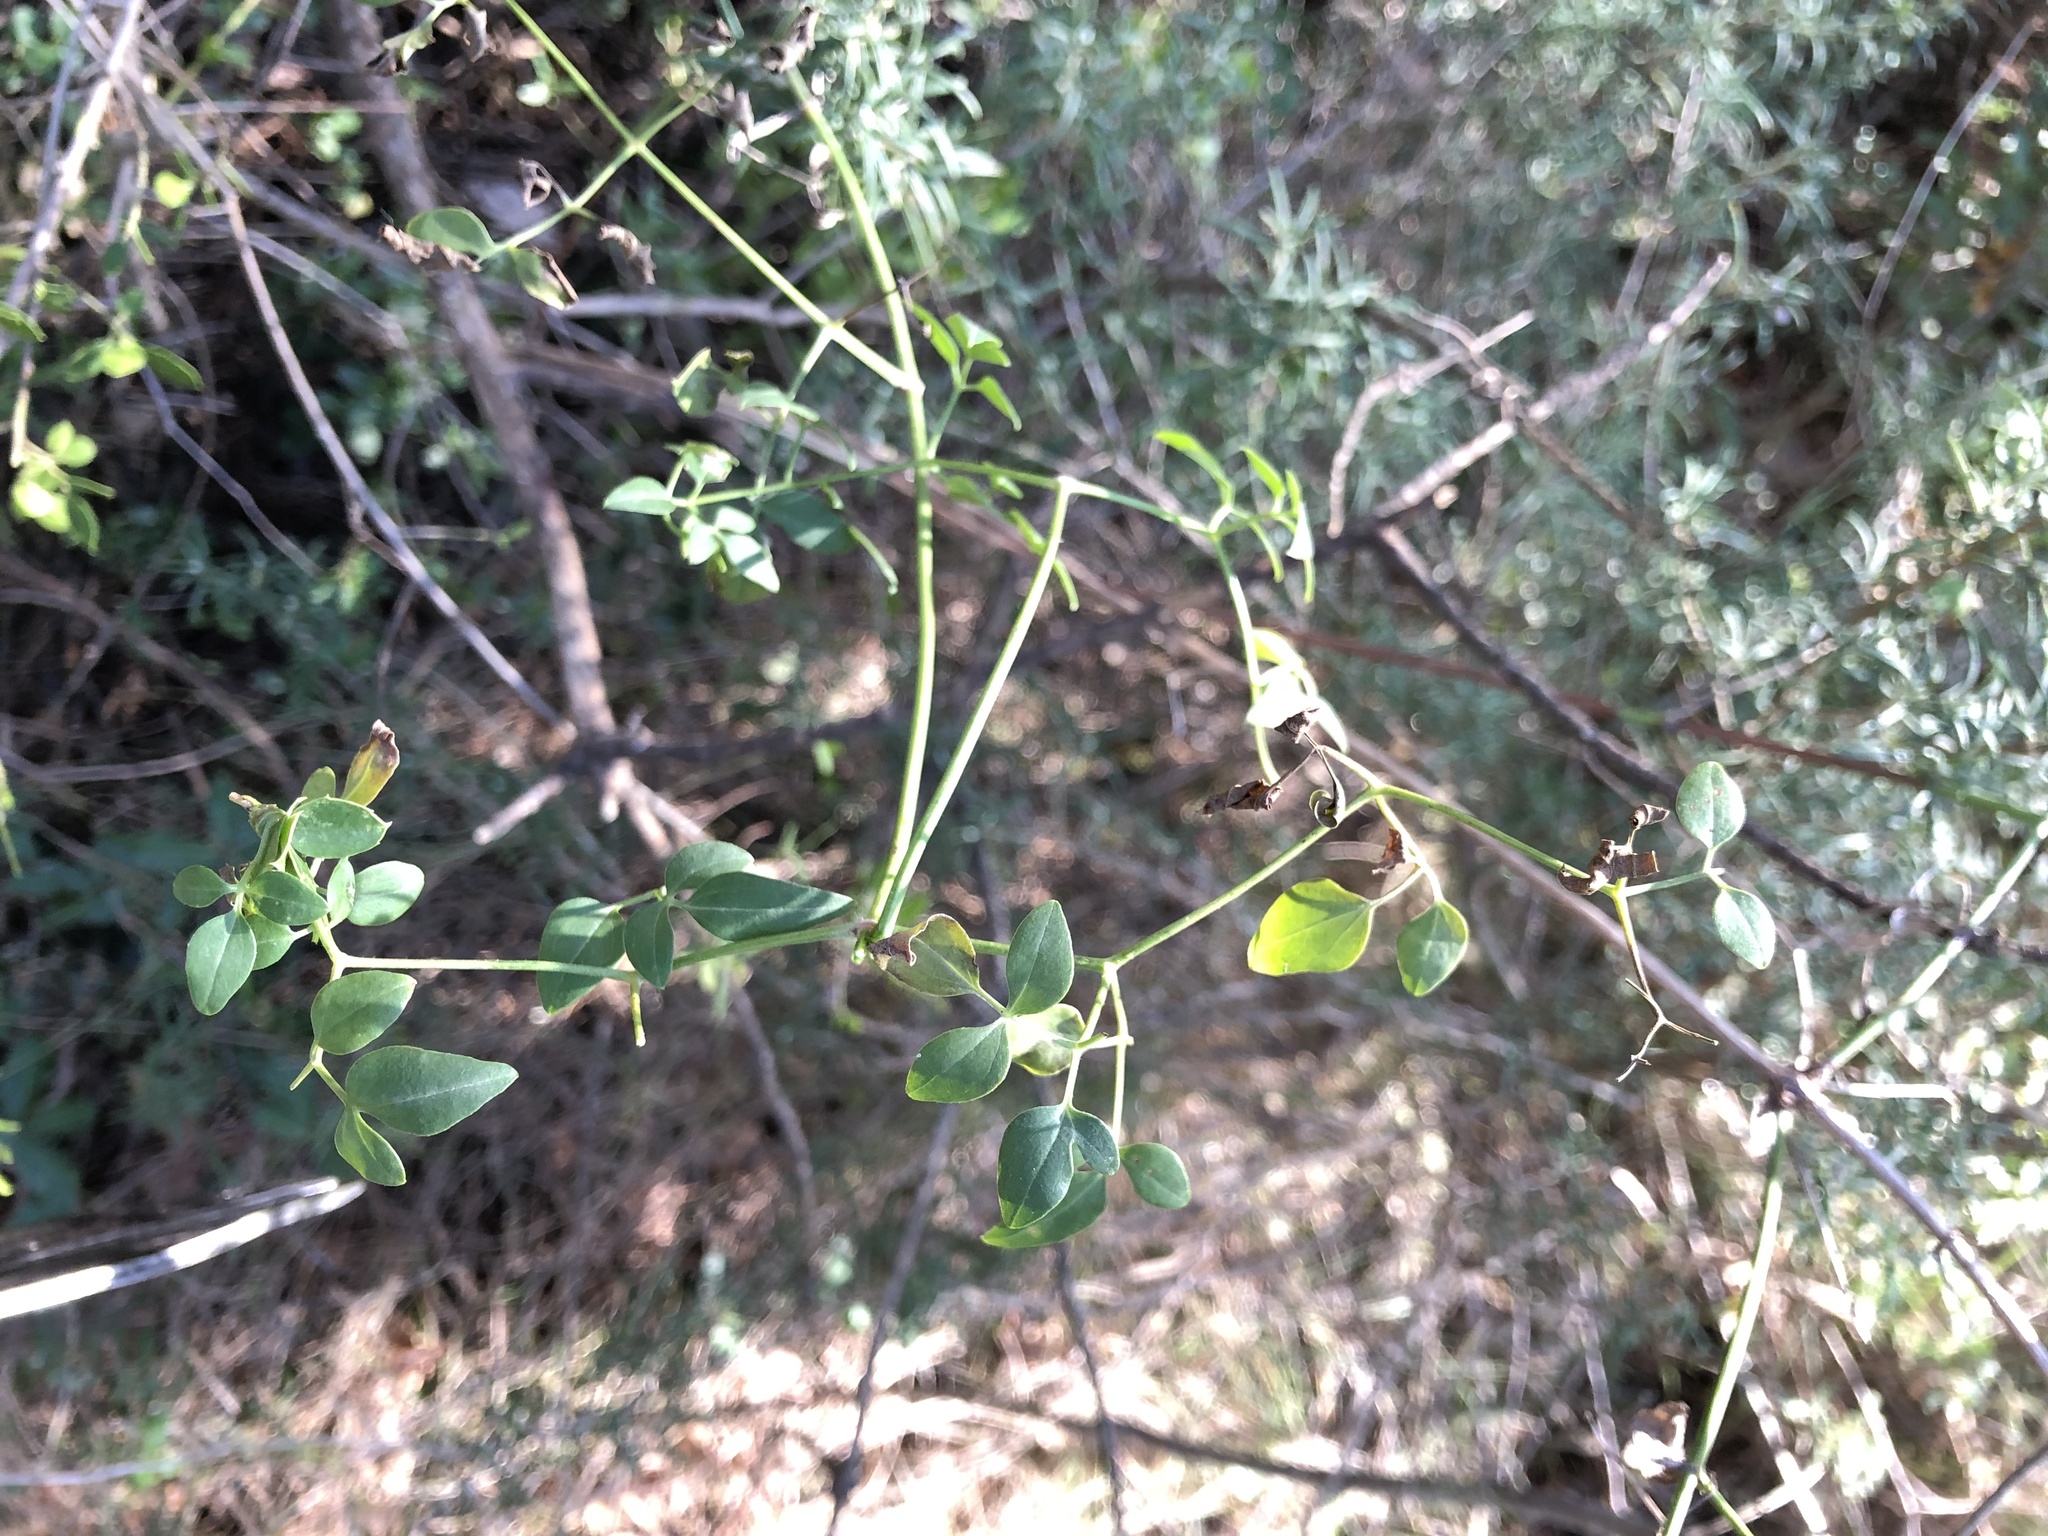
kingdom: Plantae
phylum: Tracheophyta
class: Magnoliopsida
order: Ranunculales
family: Ranunculaceae
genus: Clematis
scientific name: Clematis flammula
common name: Virgin's-bower
